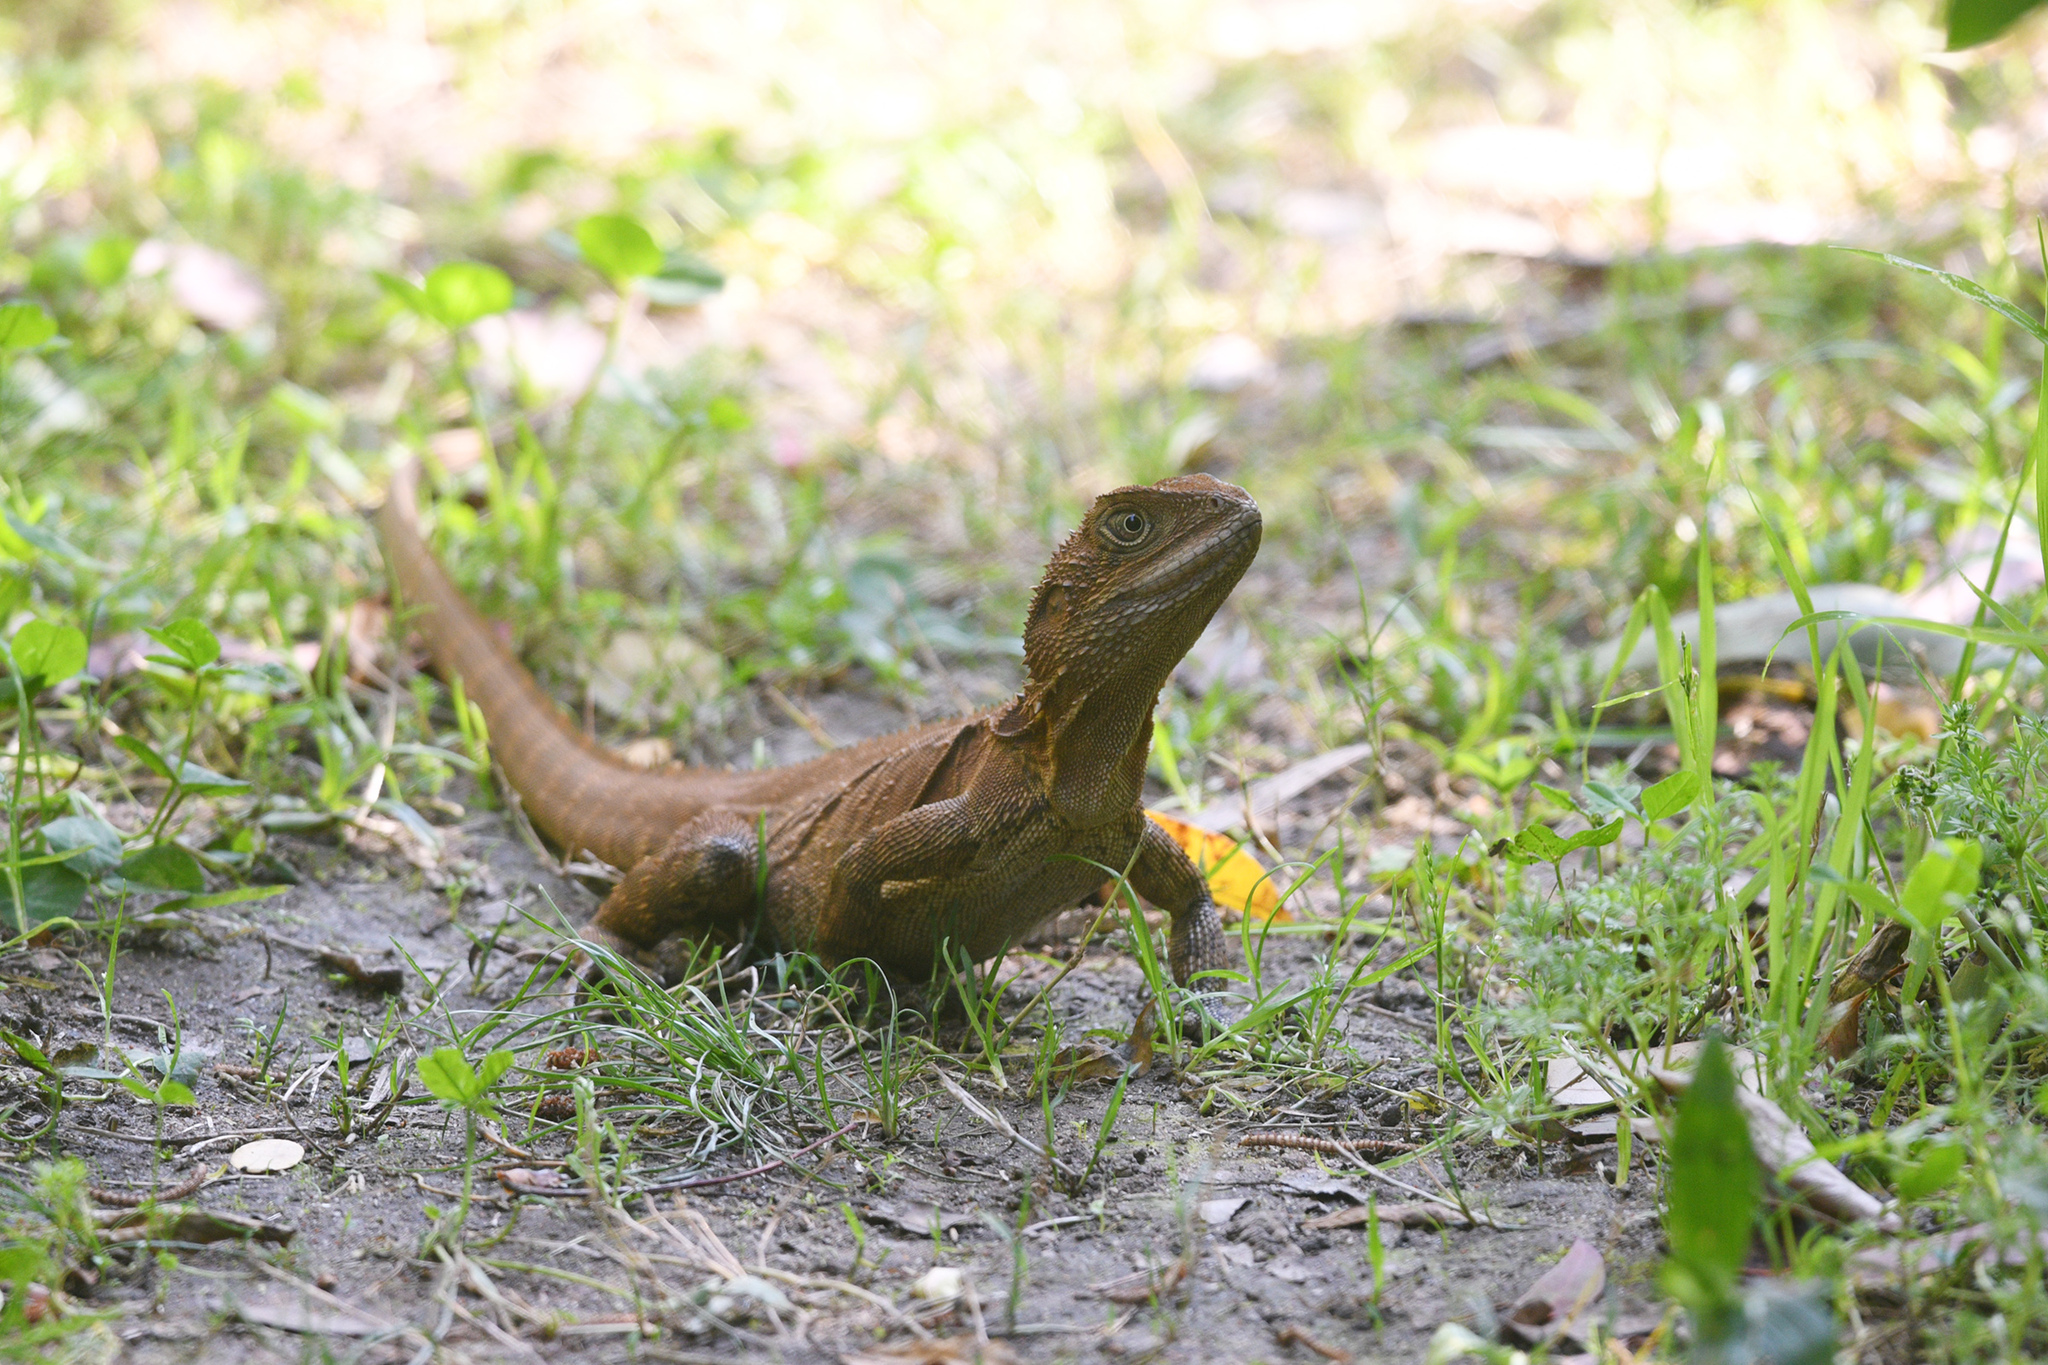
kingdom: Animalia
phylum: Chordata
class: Squamata
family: Agamidae
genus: Intellagama
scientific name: Intellagama lesueurii
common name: Eastern water dragon
